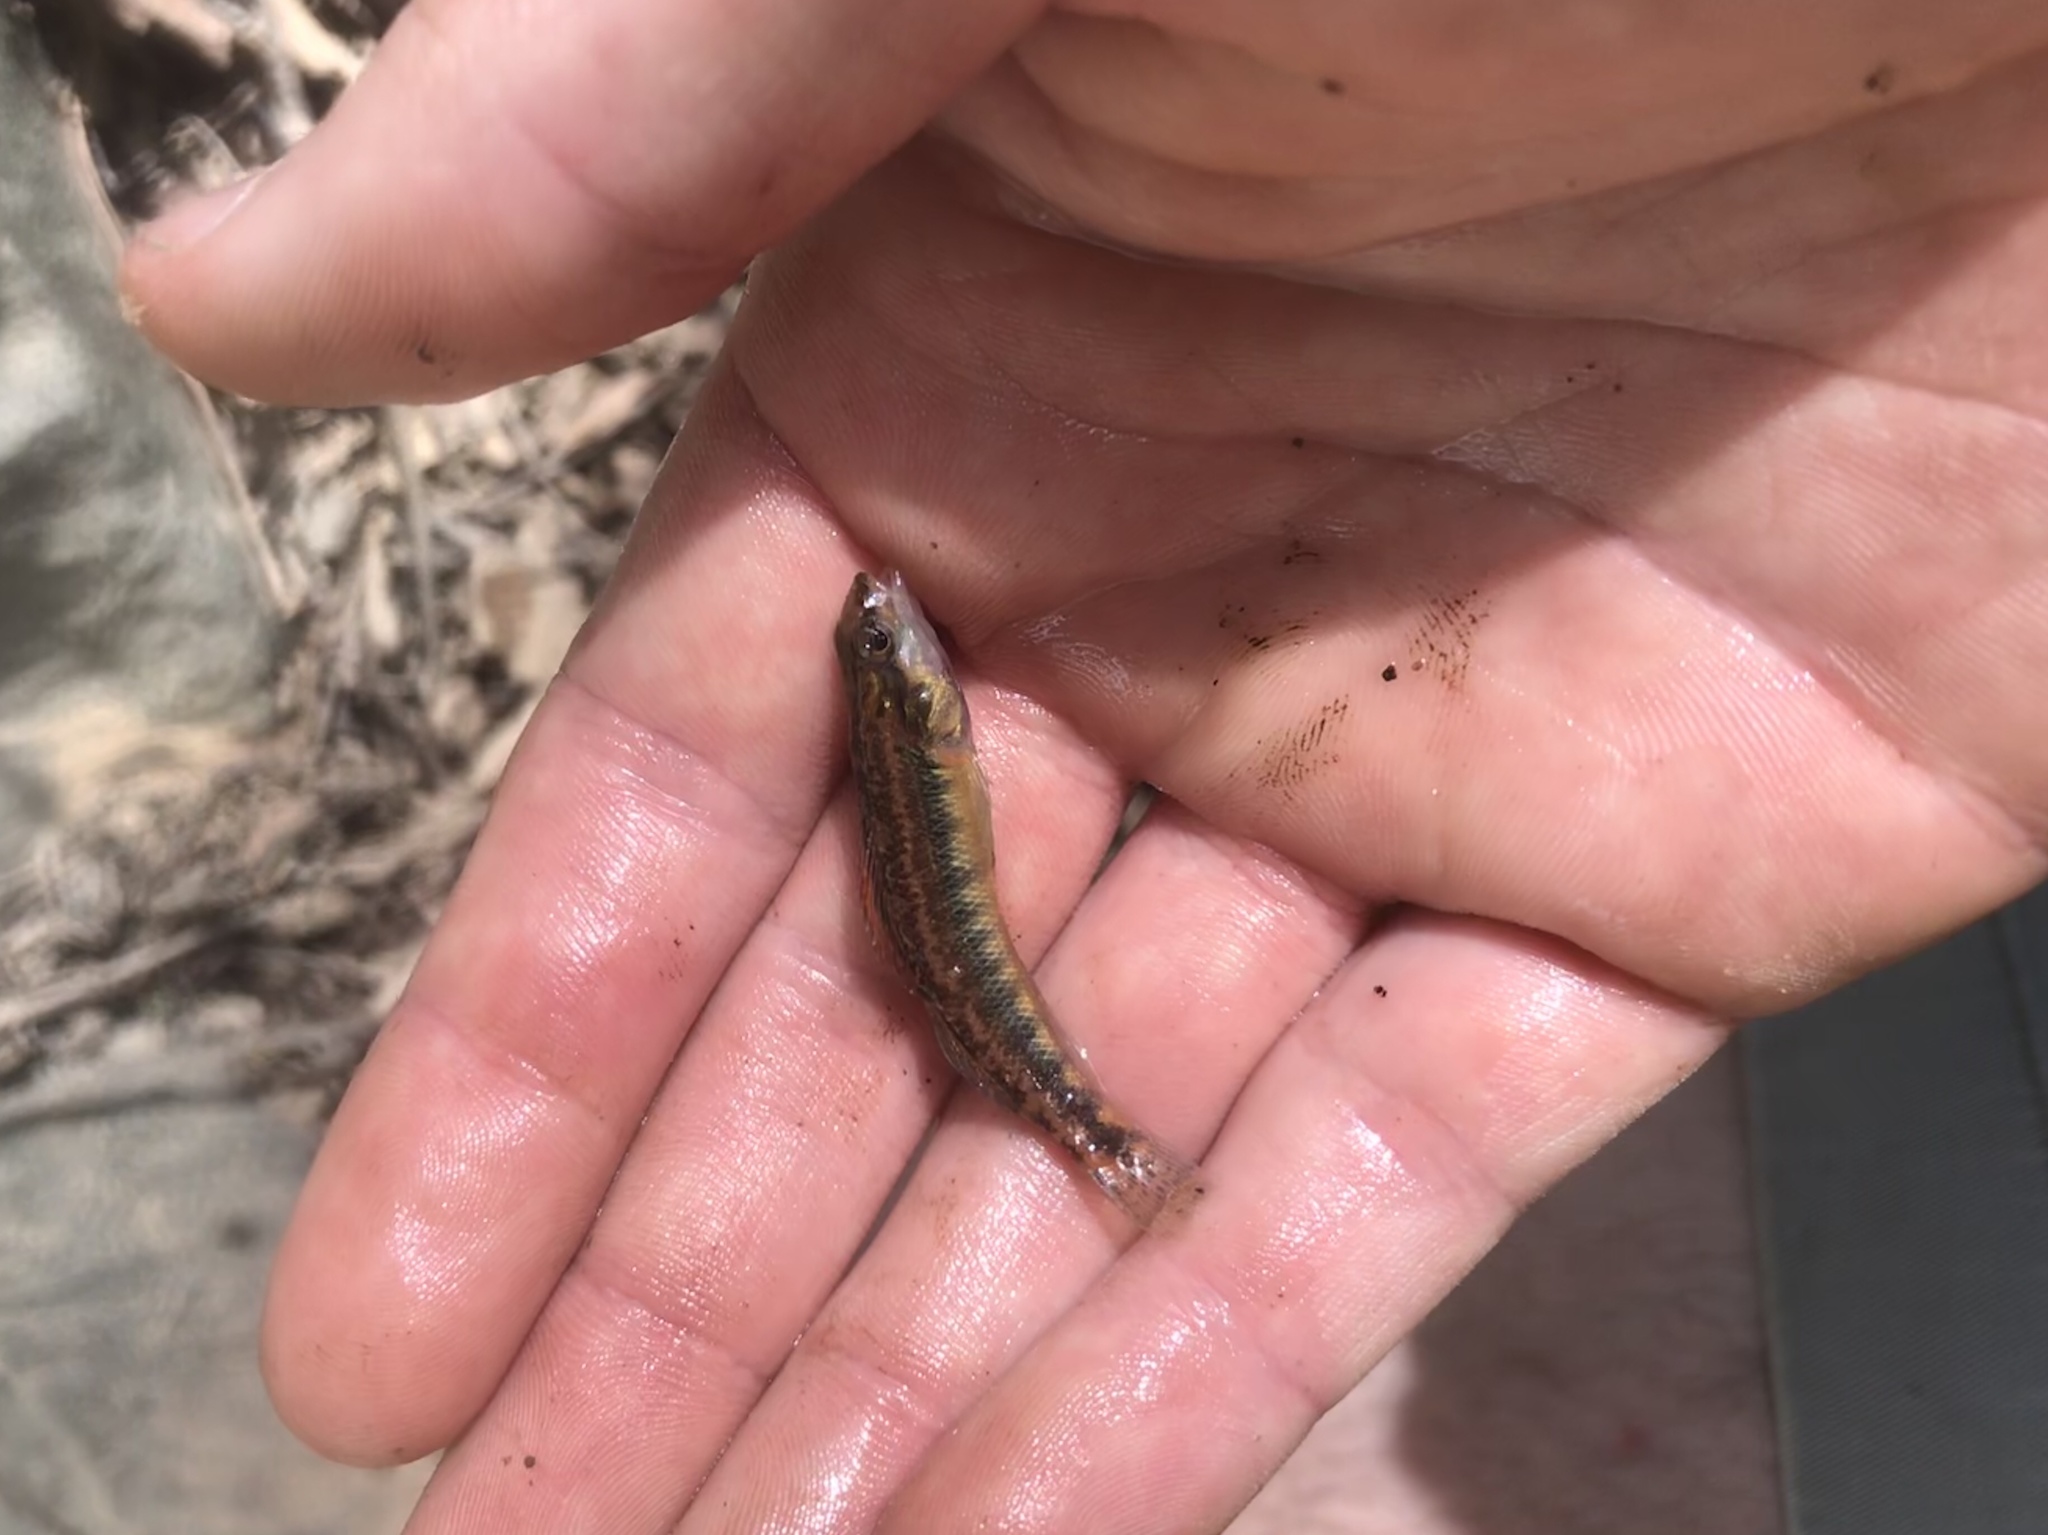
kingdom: Animalia
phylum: Chordata
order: Perciformes
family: Percidae
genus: Percina
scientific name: Percina roanoka
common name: Roanoke darter
